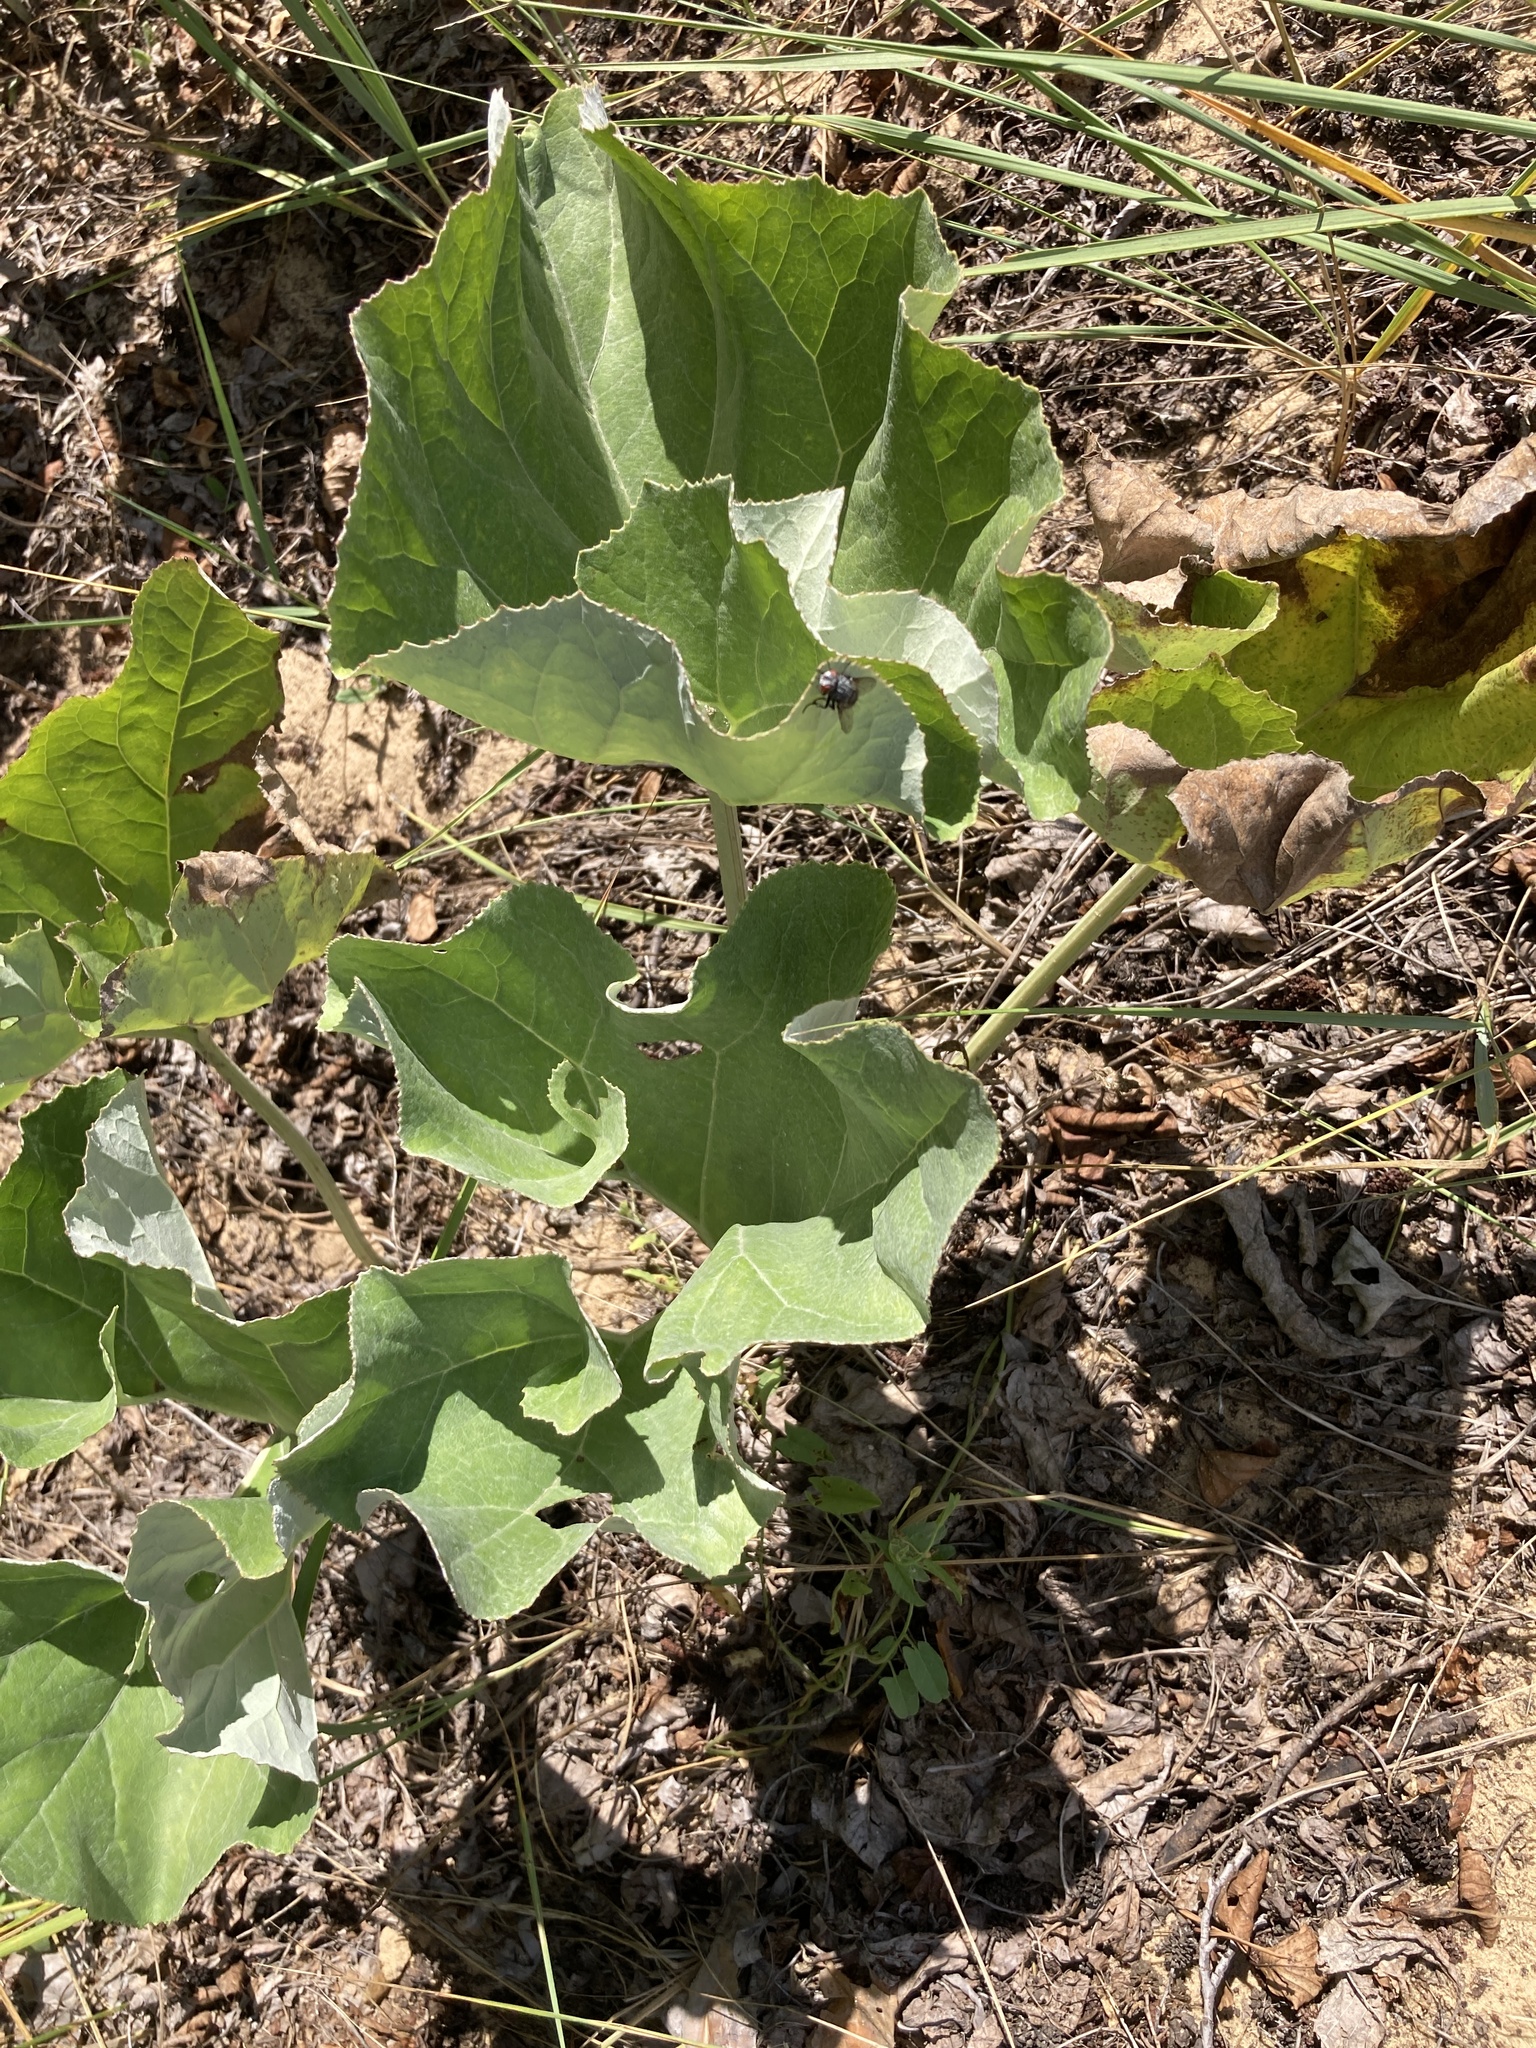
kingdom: Plantae
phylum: Tracheophyta
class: Magnoliopsida
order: Asterales
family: Asteraceae
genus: Petasites
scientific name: Petasites spurius
